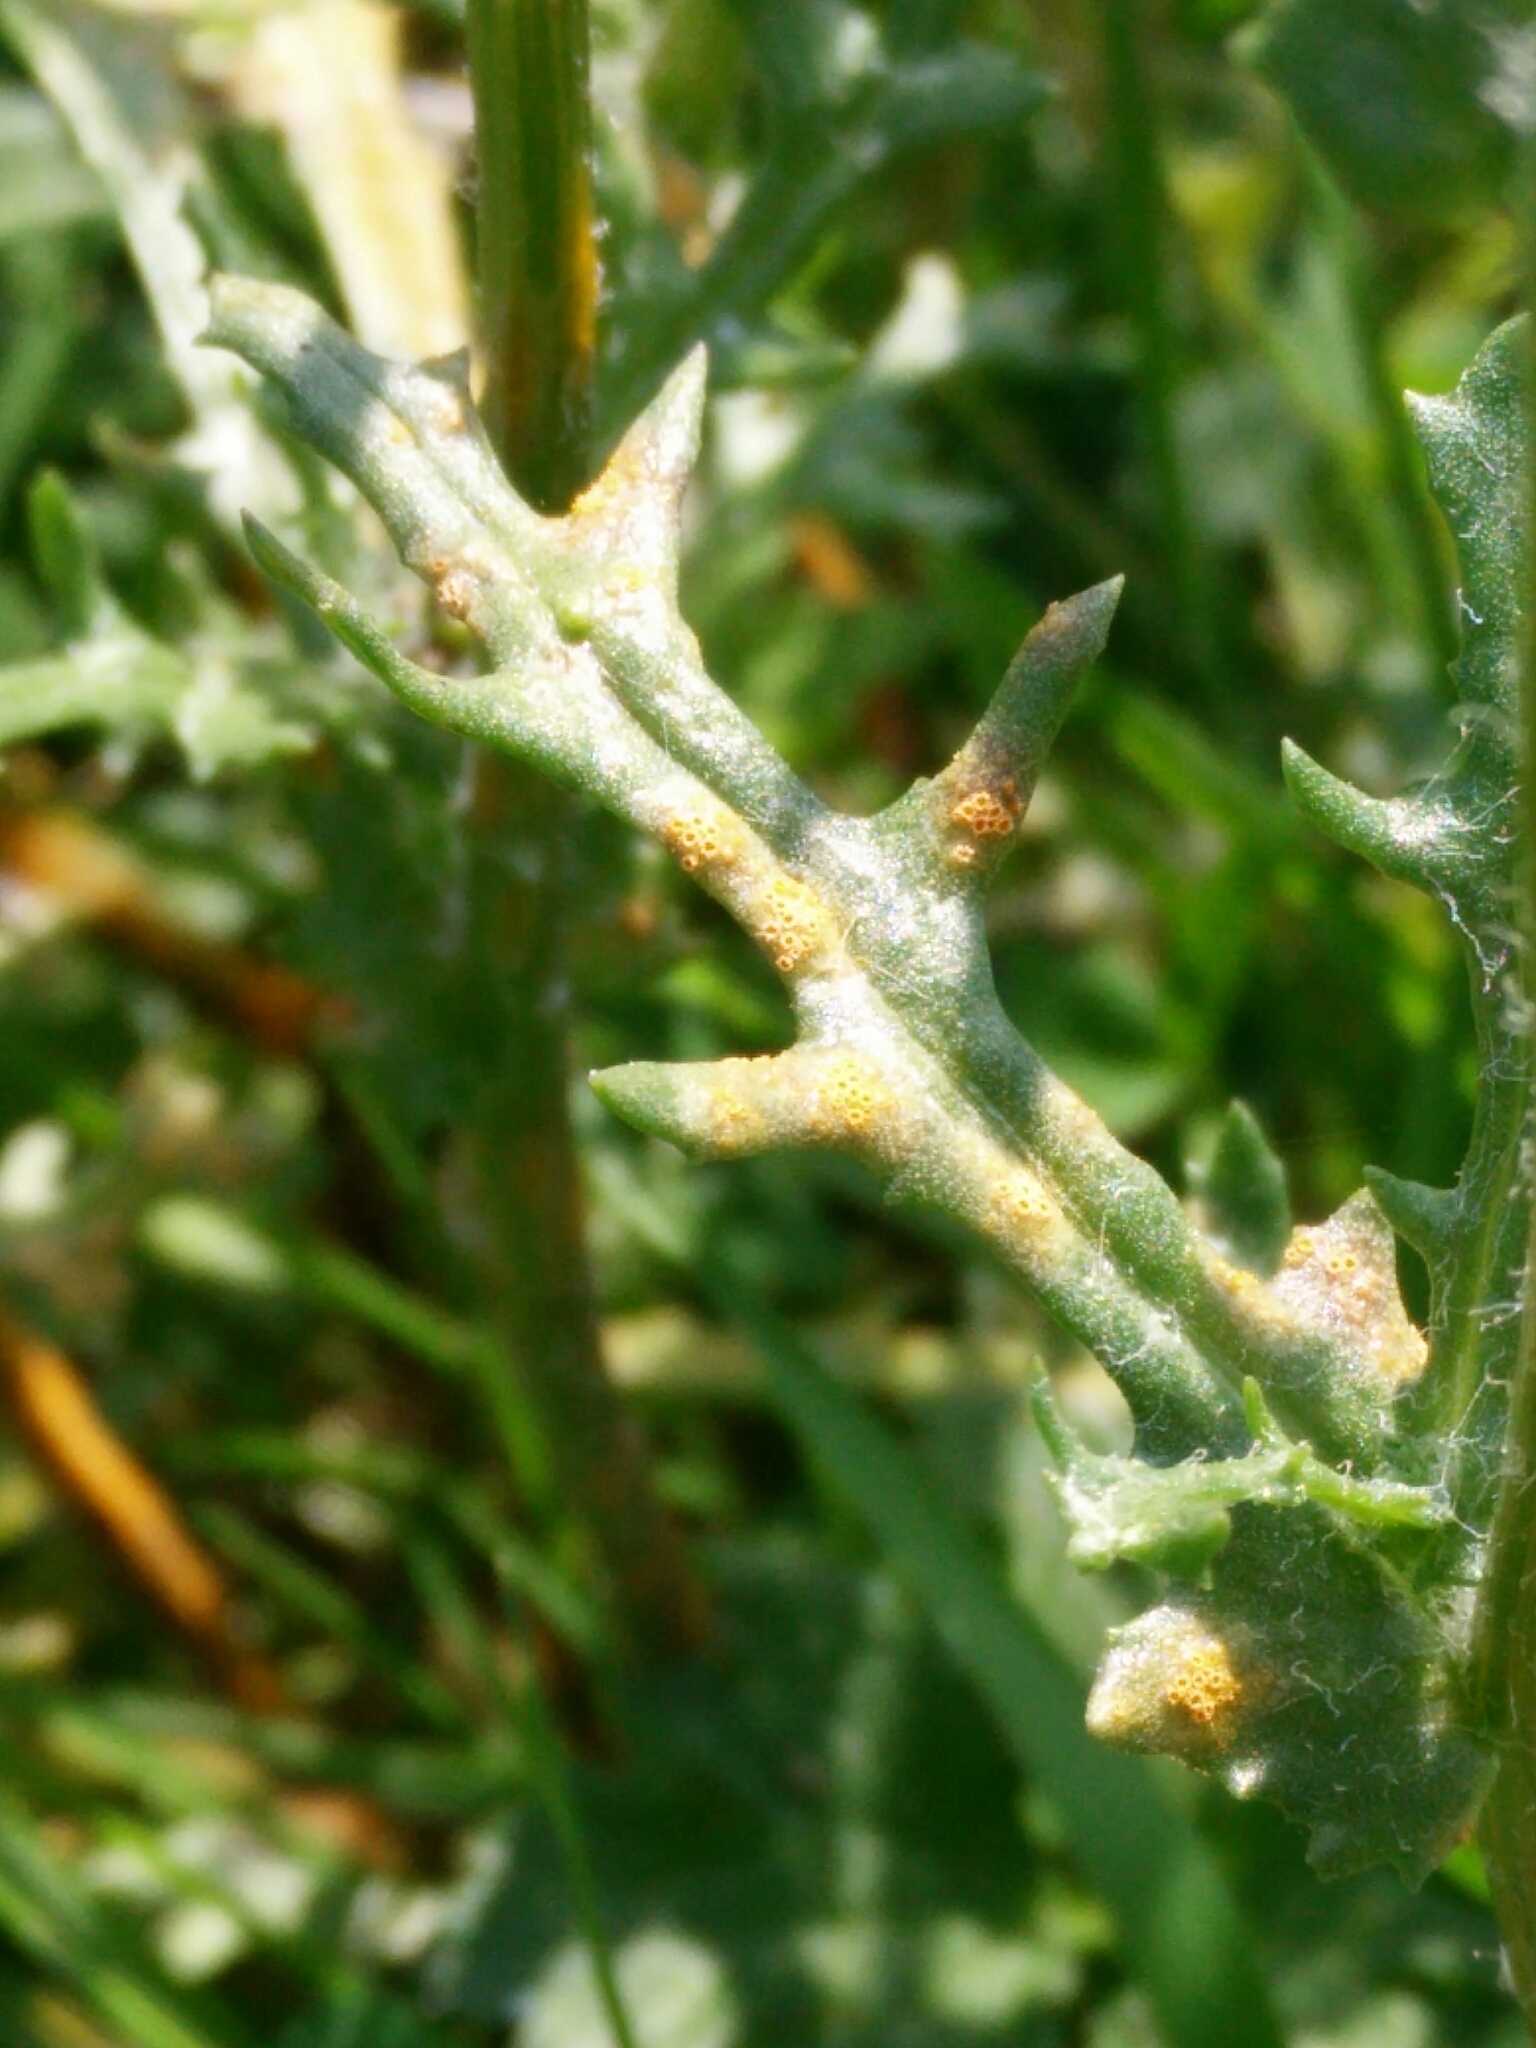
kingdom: Fungi
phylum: Basidiomycota
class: Pucciniomycetes
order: Pucciniales
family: Pucciniaceae
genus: Puccinia
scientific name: Puccinia lagenophorae
